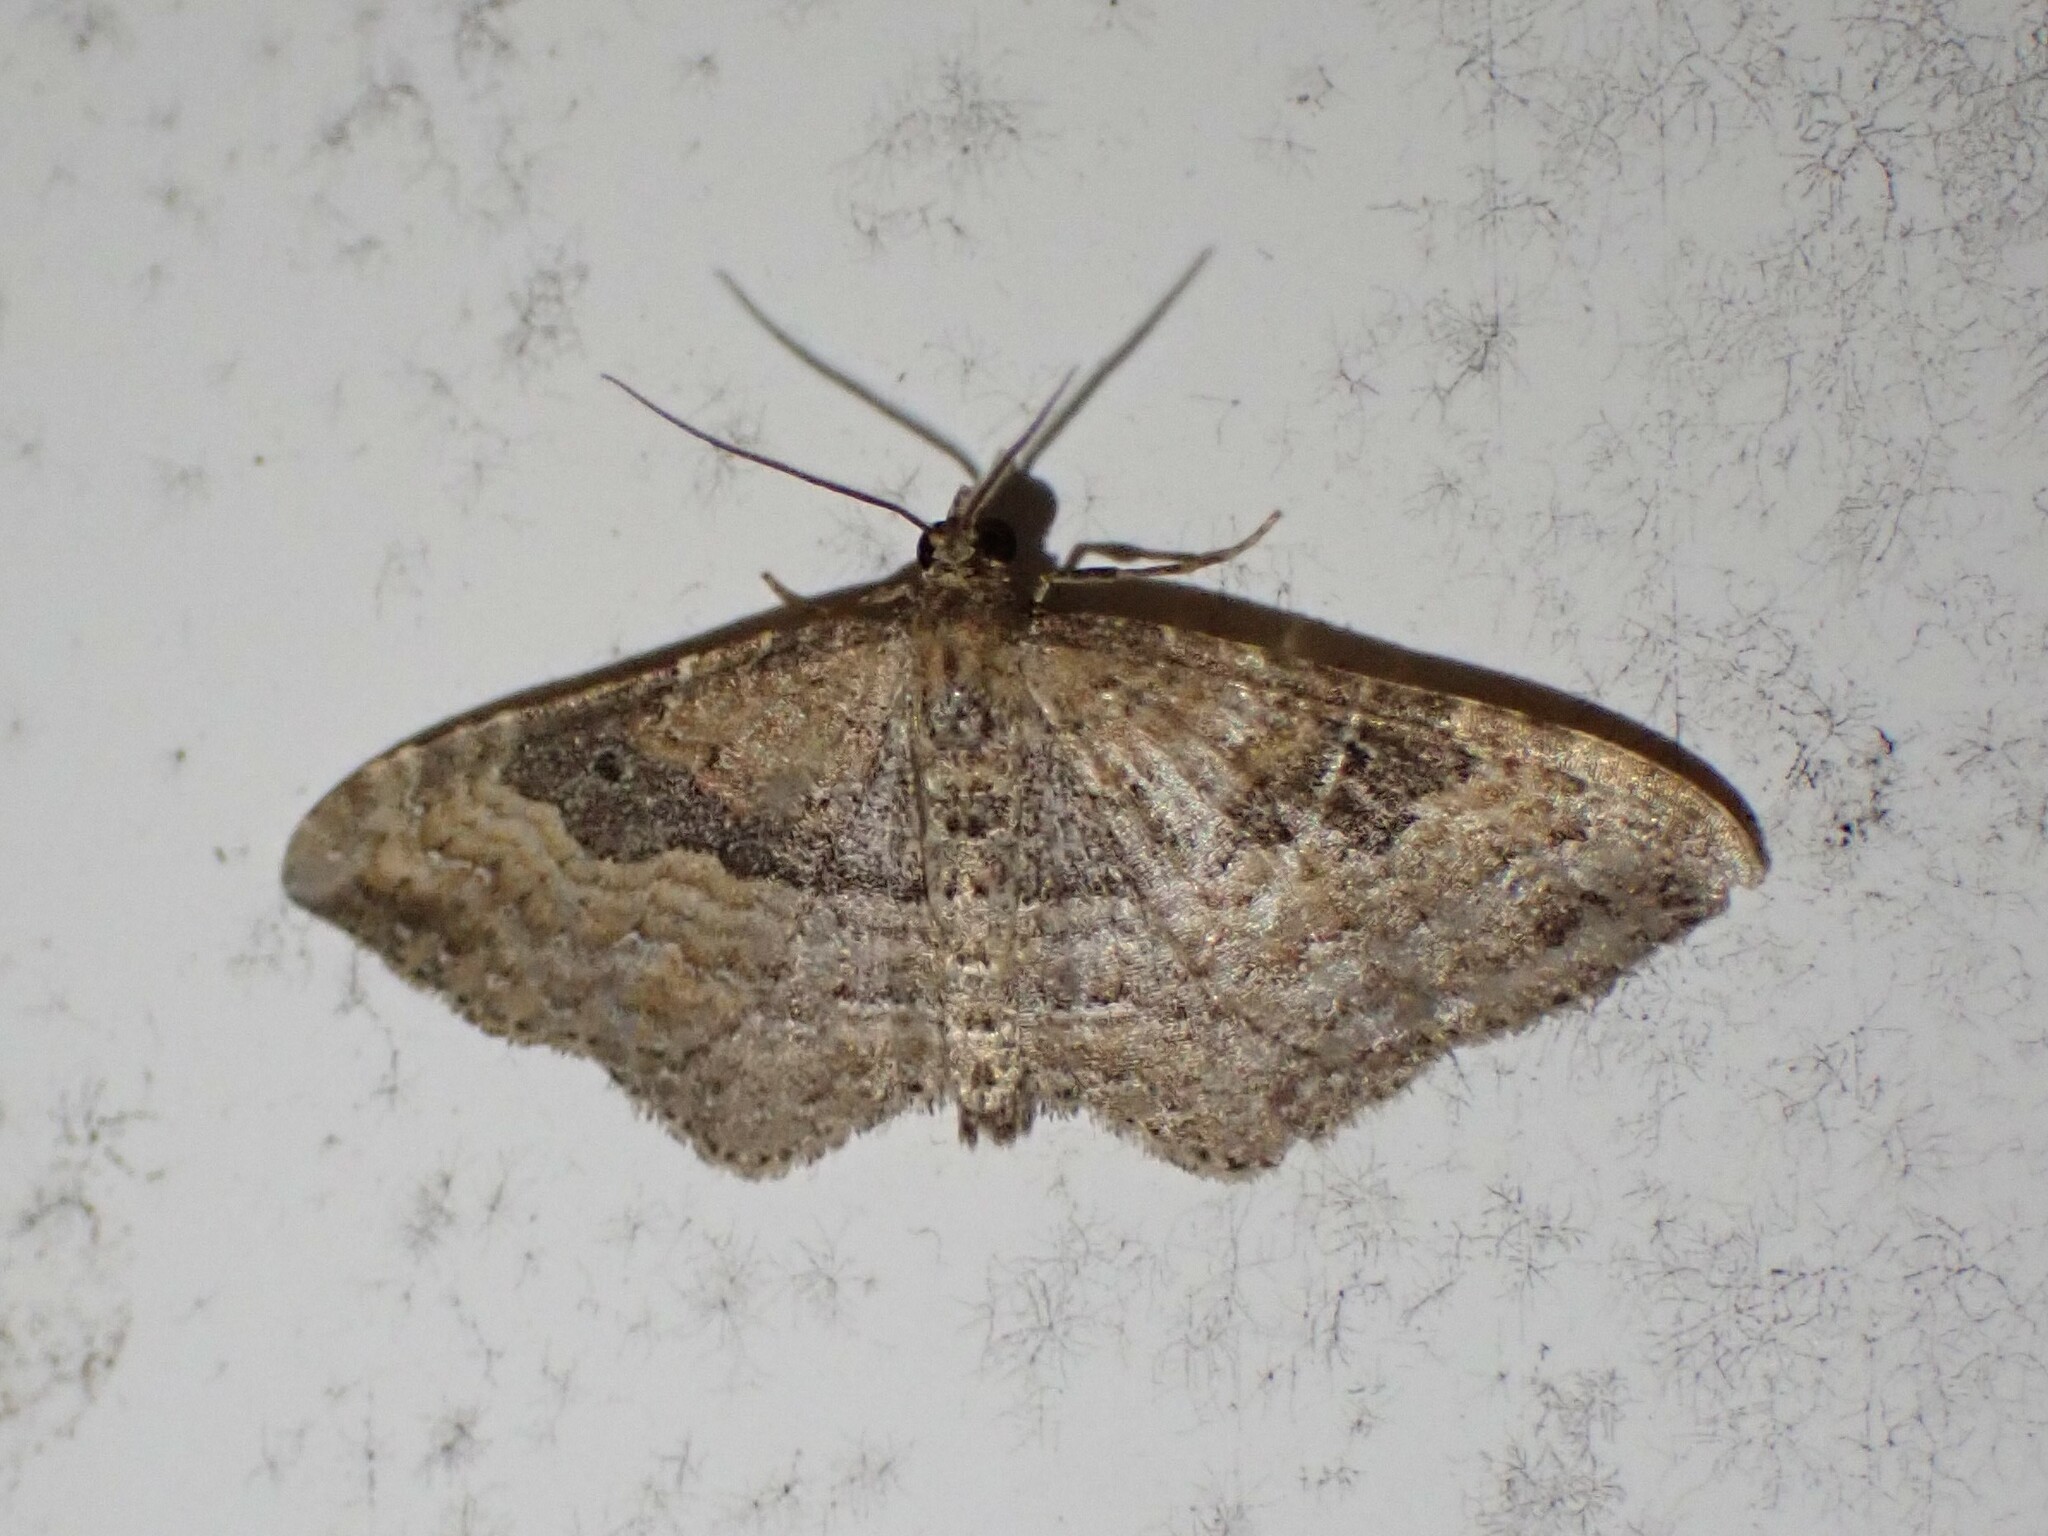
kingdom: Animalia
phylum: Arthropoda
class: Insecta
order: Lepidoptera
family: Geometridae
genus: Orthonama
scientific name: Orthonama obstipata
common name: The gem
